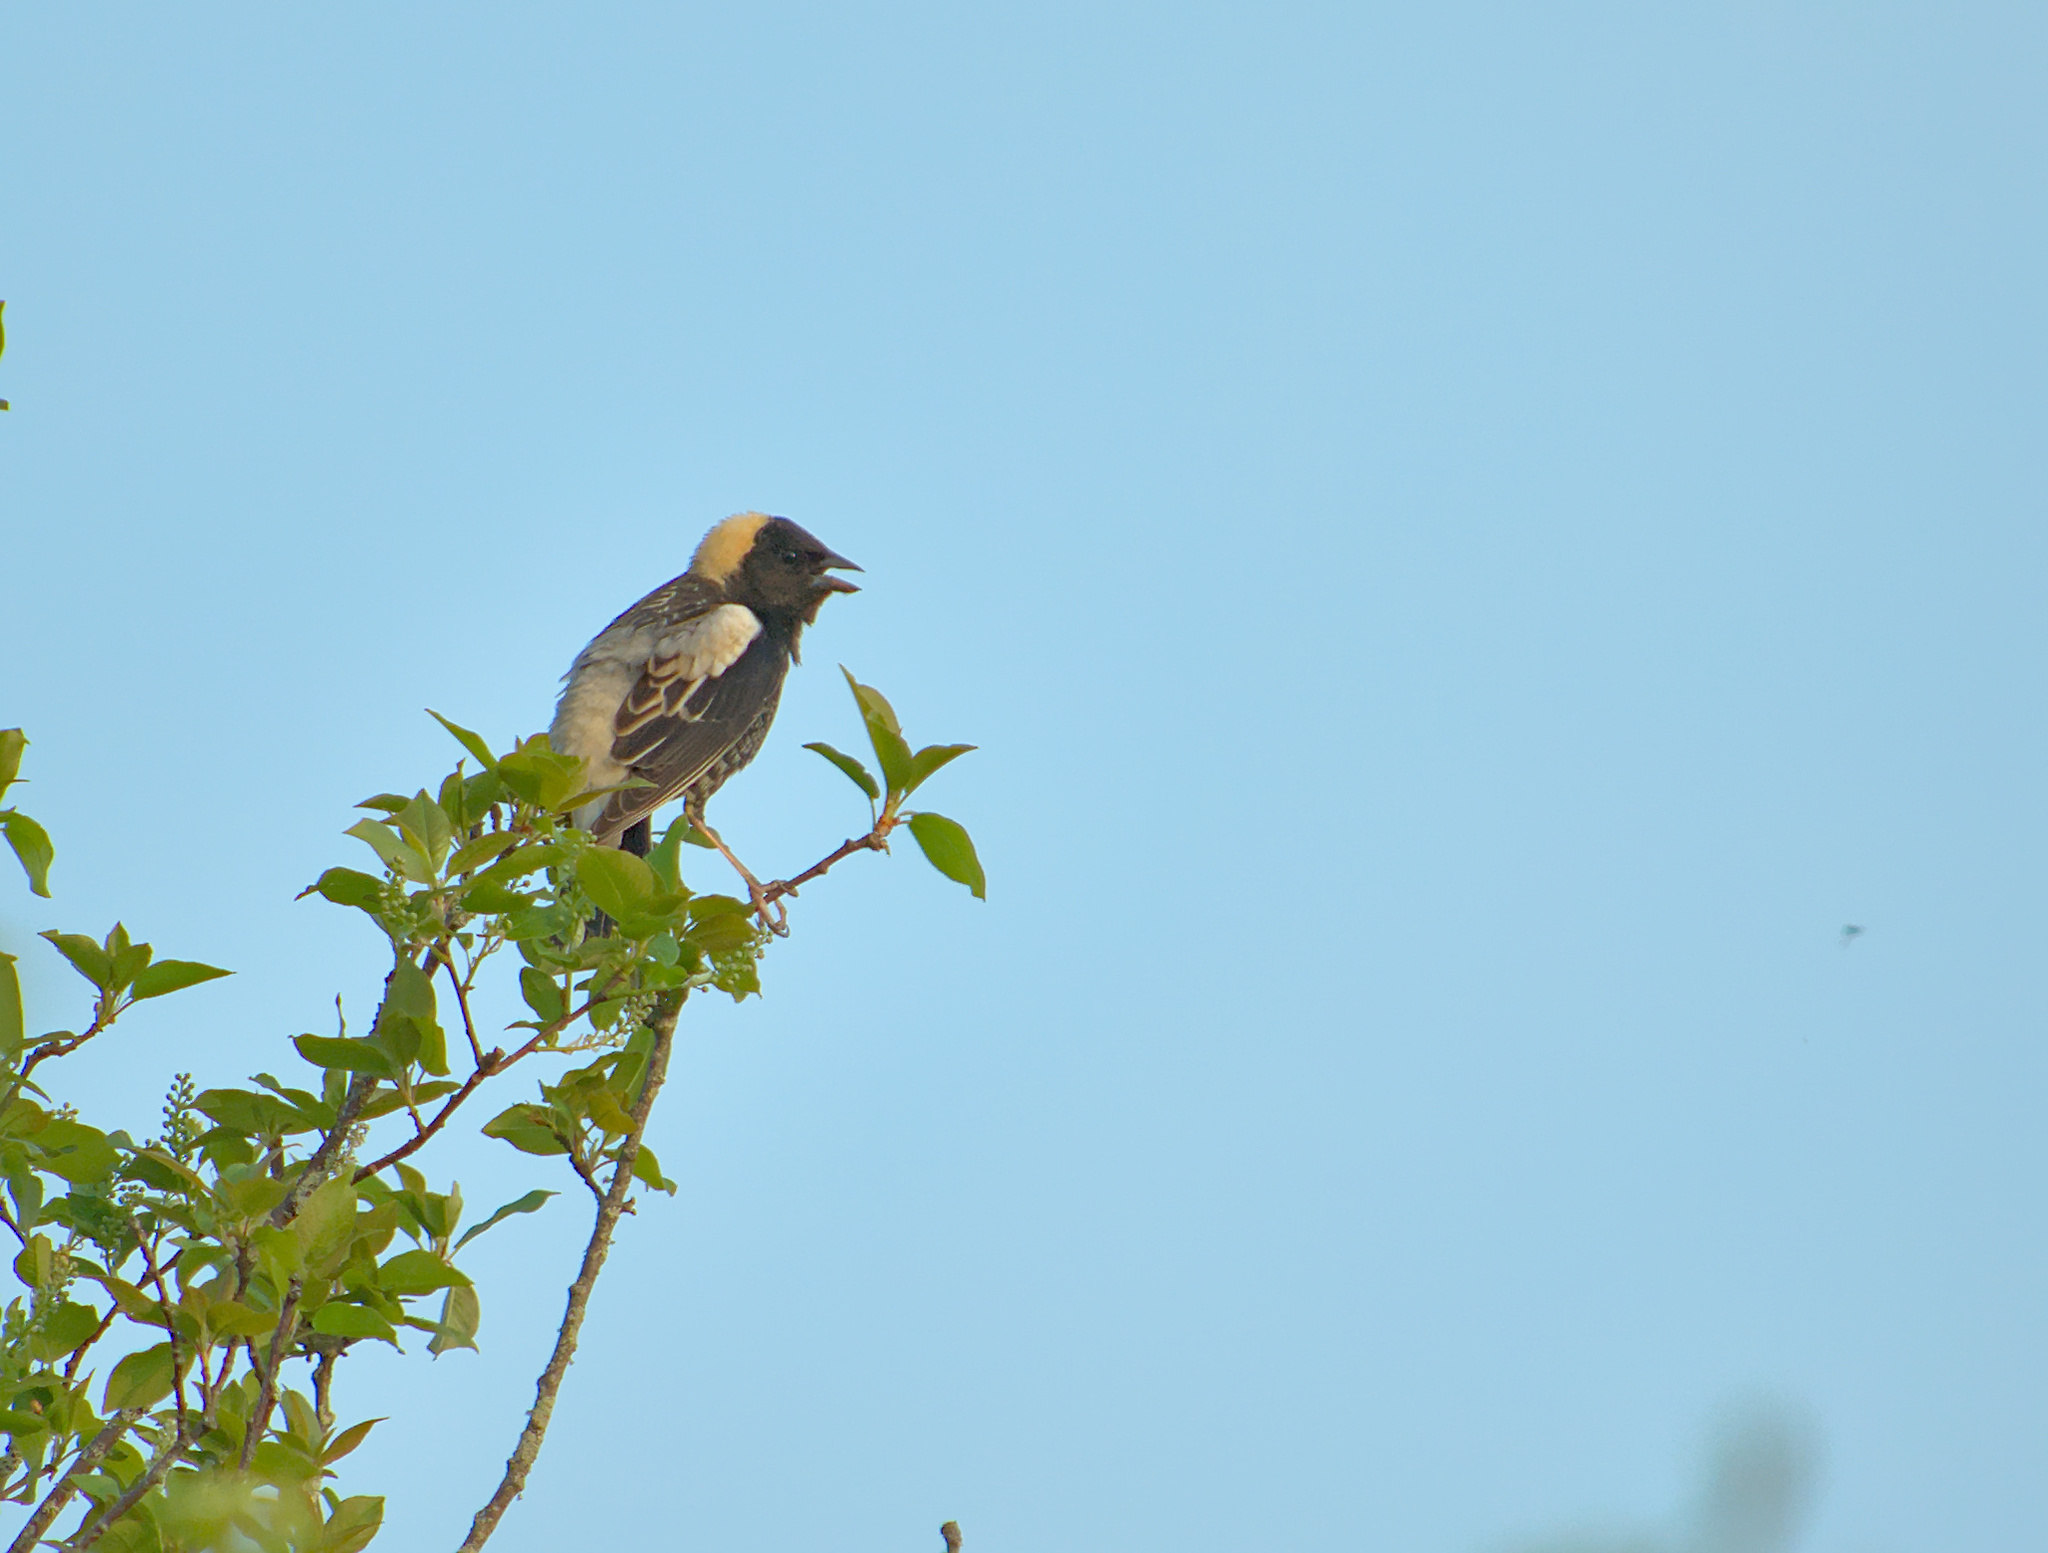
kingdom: Animalia
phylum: Chordata
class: Aves
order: Passeriformes
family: Icteridae
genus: Dolichonyx
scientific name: Dolichonyx oryzivorus
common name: Bobolink
